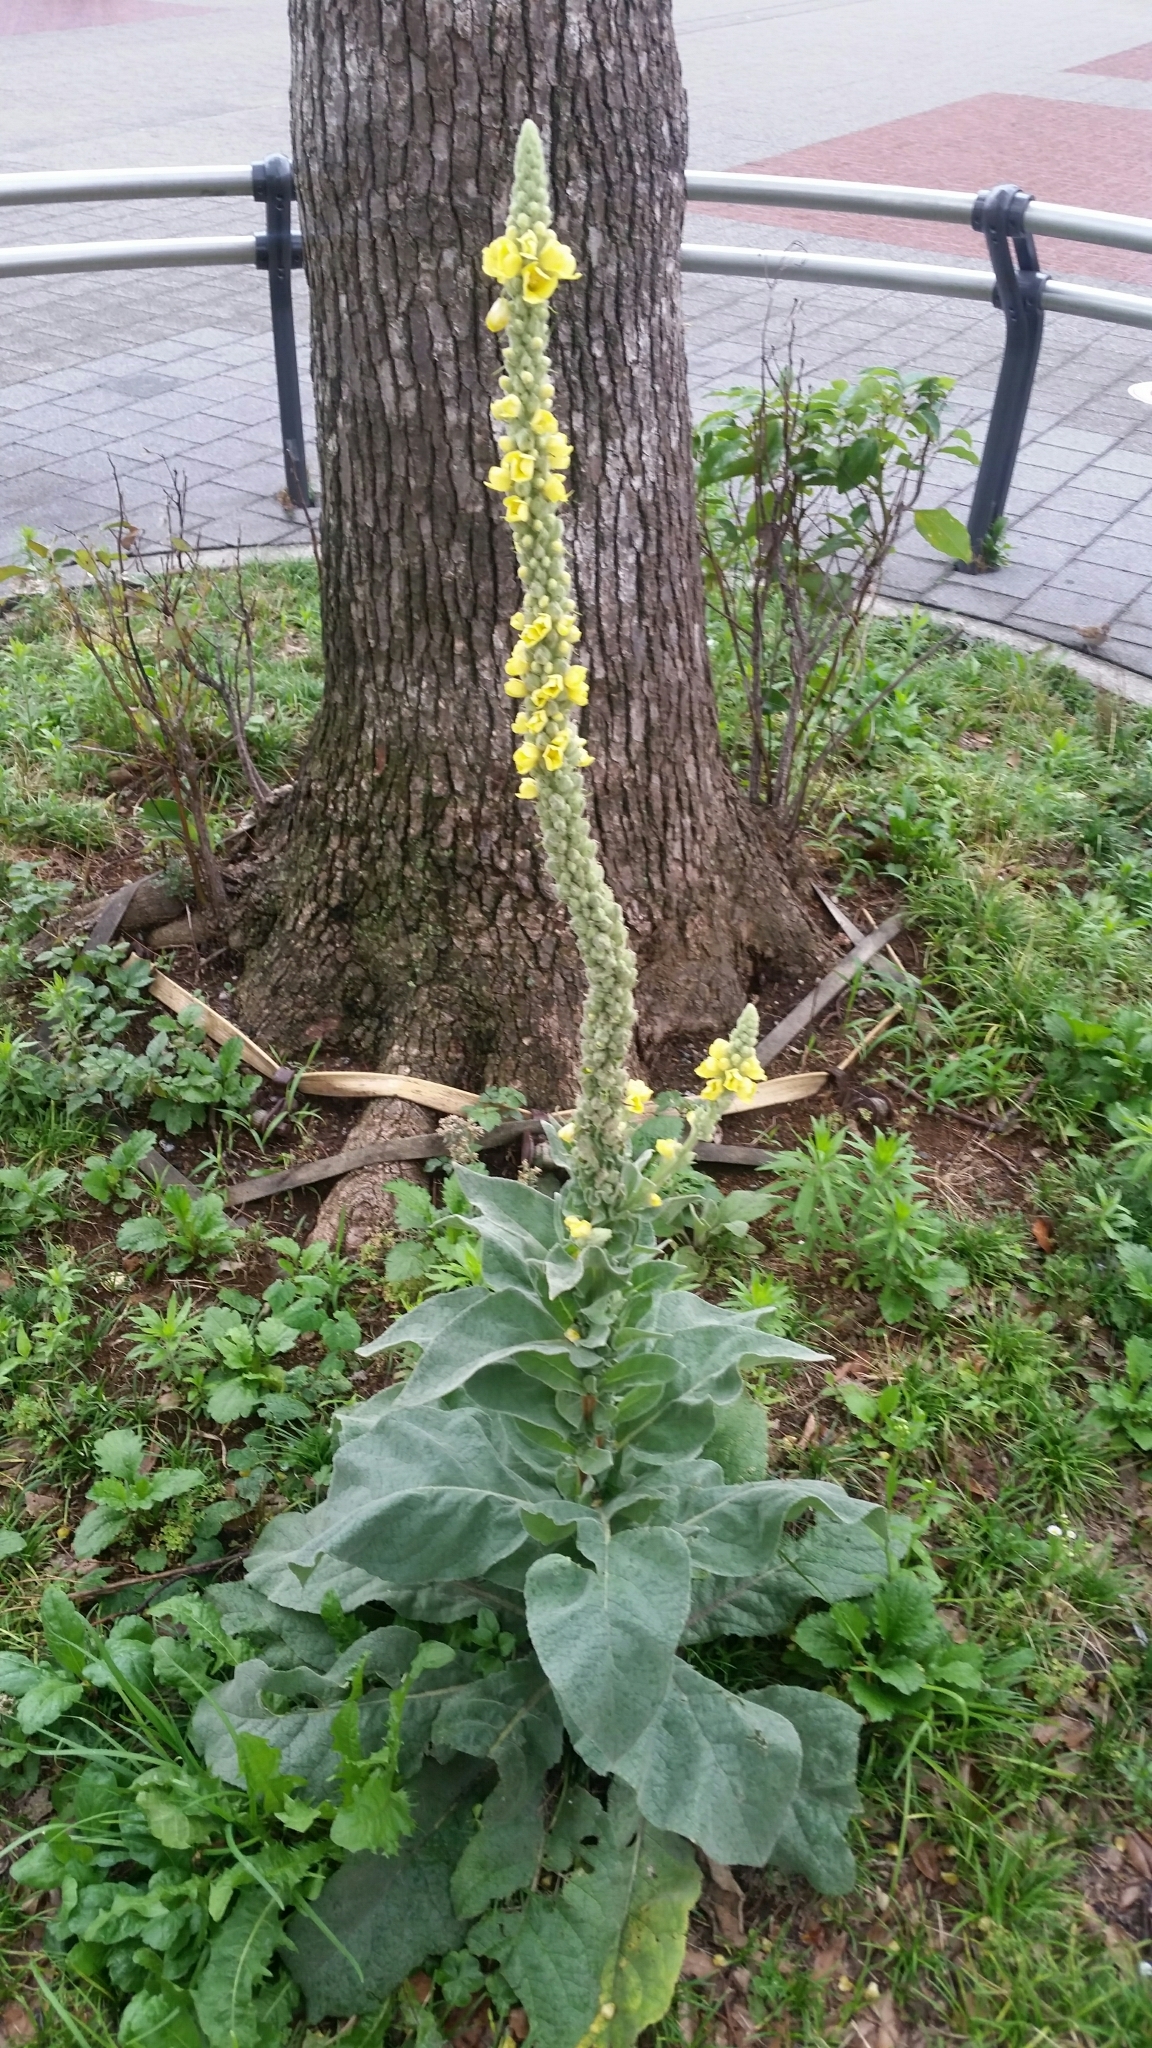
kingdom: Plantae
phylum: Tracheophyta
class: Magnoliopsida
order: Lamiales
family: Scrophulariaceae
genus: Verbascum
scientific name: Verbascum thapsus
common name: Common mullein
